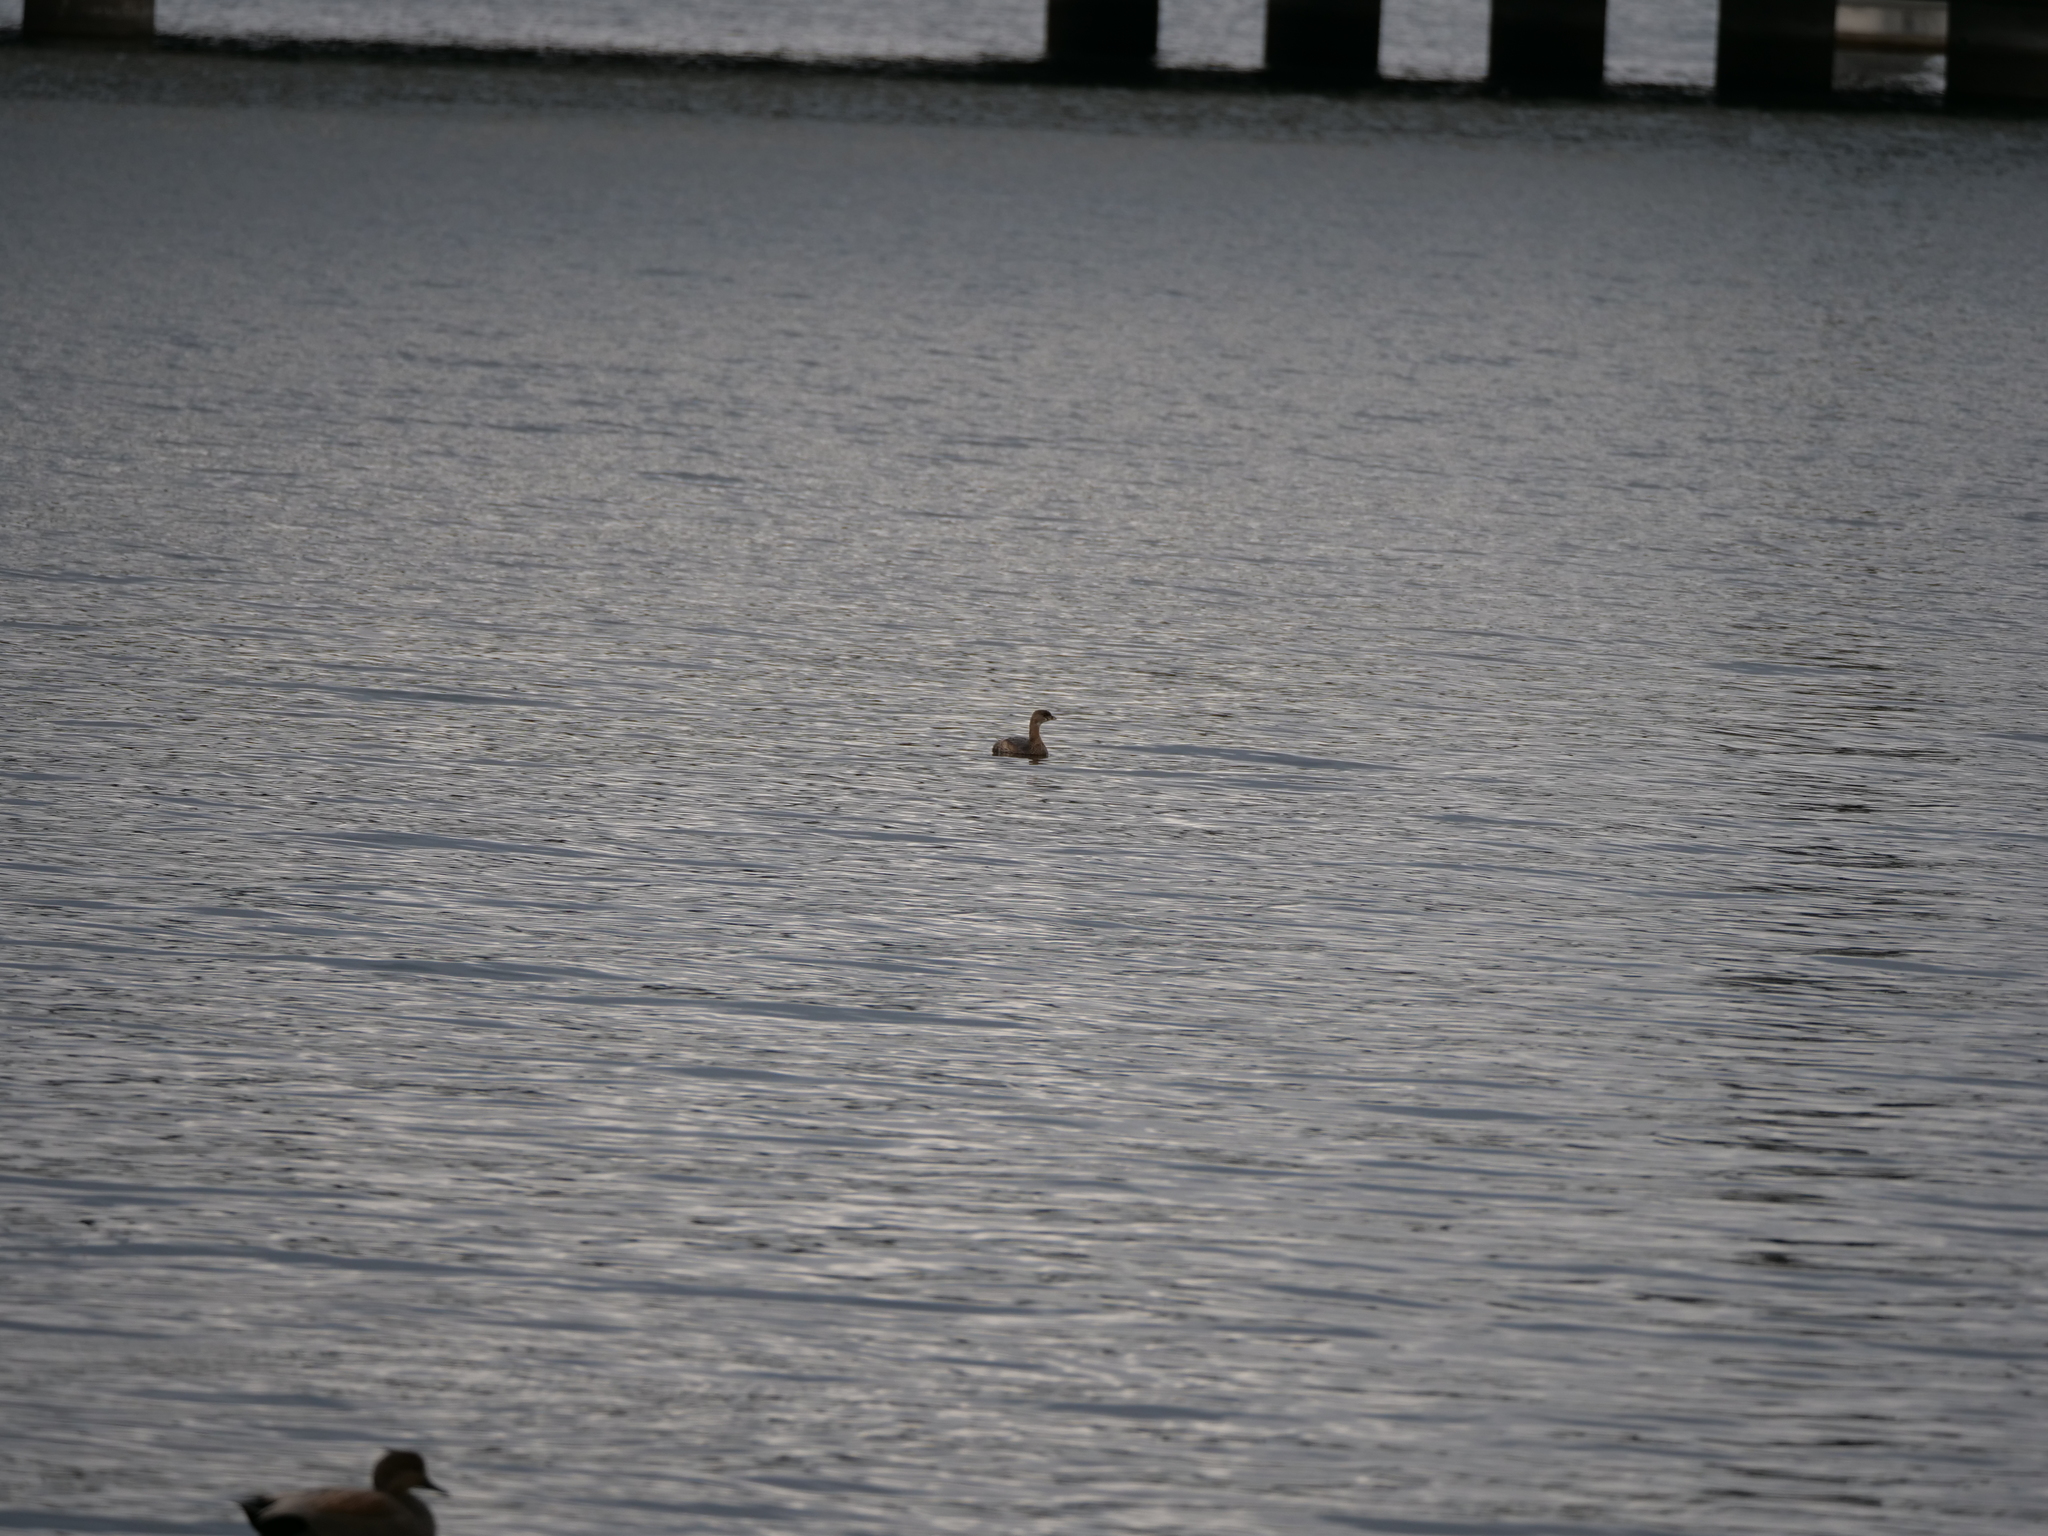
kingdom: Animalia
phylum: Chordata
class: Aves
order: Podicipediformes
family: Podicipedidae
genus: Podilymbus
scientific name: Podilymbus podiceps
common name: Pied-billed grebe
